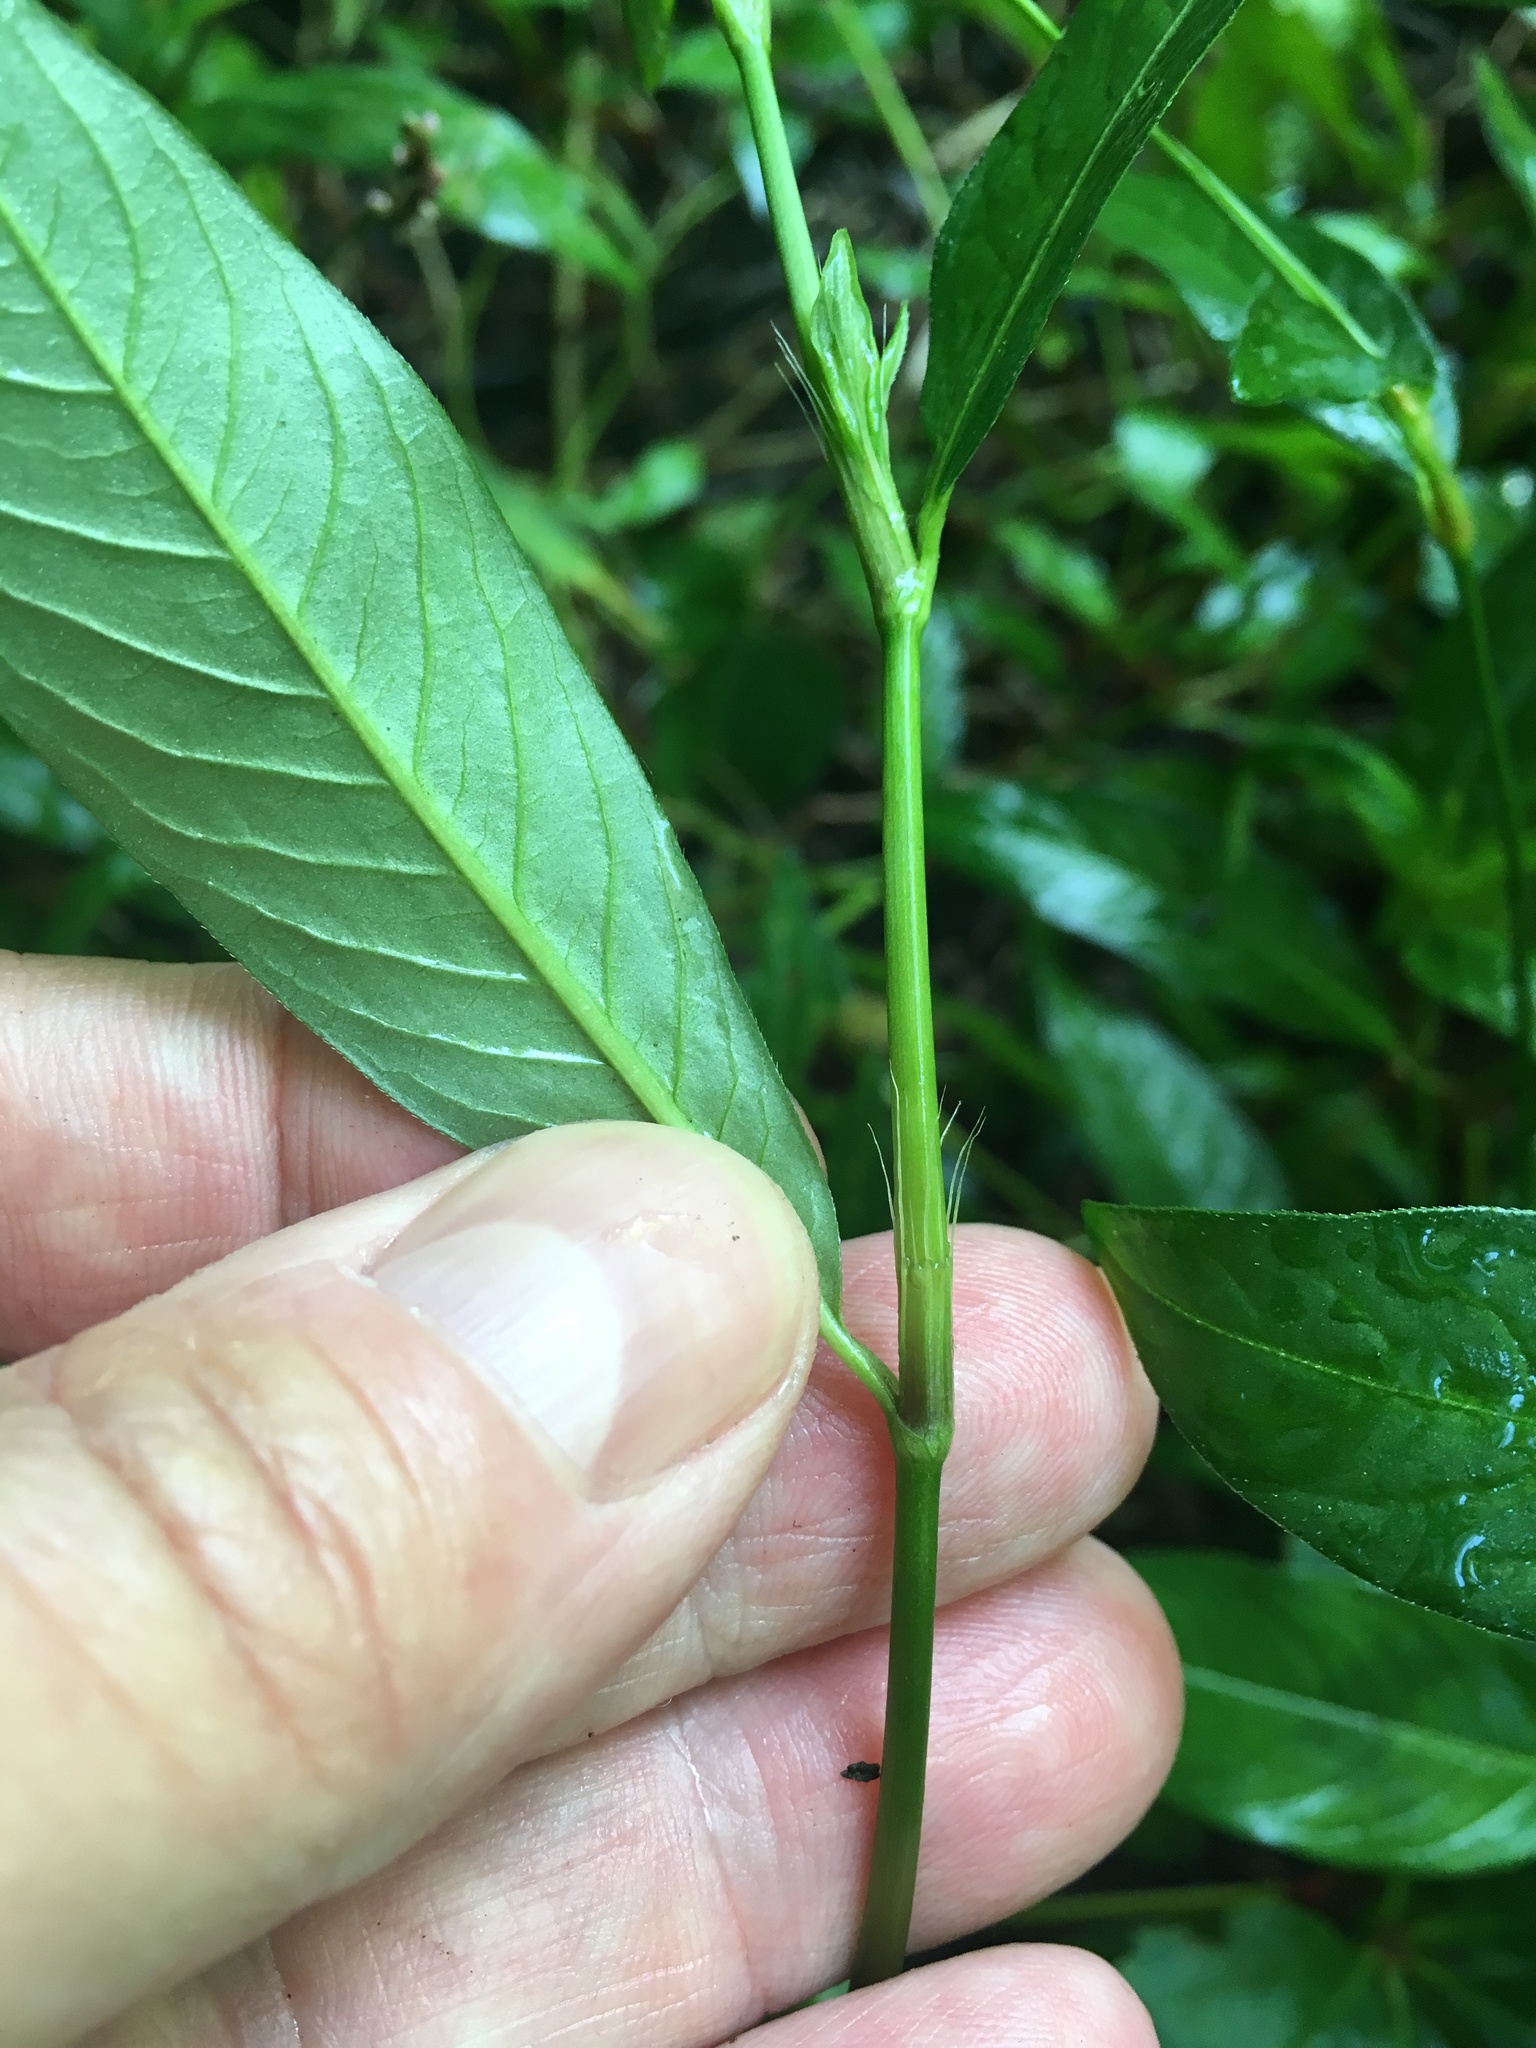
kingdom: Plantae
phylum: Tracheophyta
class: Magnoliopsida
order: Caryophyllales
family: Polygonaceae
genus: Persicaria
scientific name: Persicaria longiseta
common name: Bristly lady's-thumb
